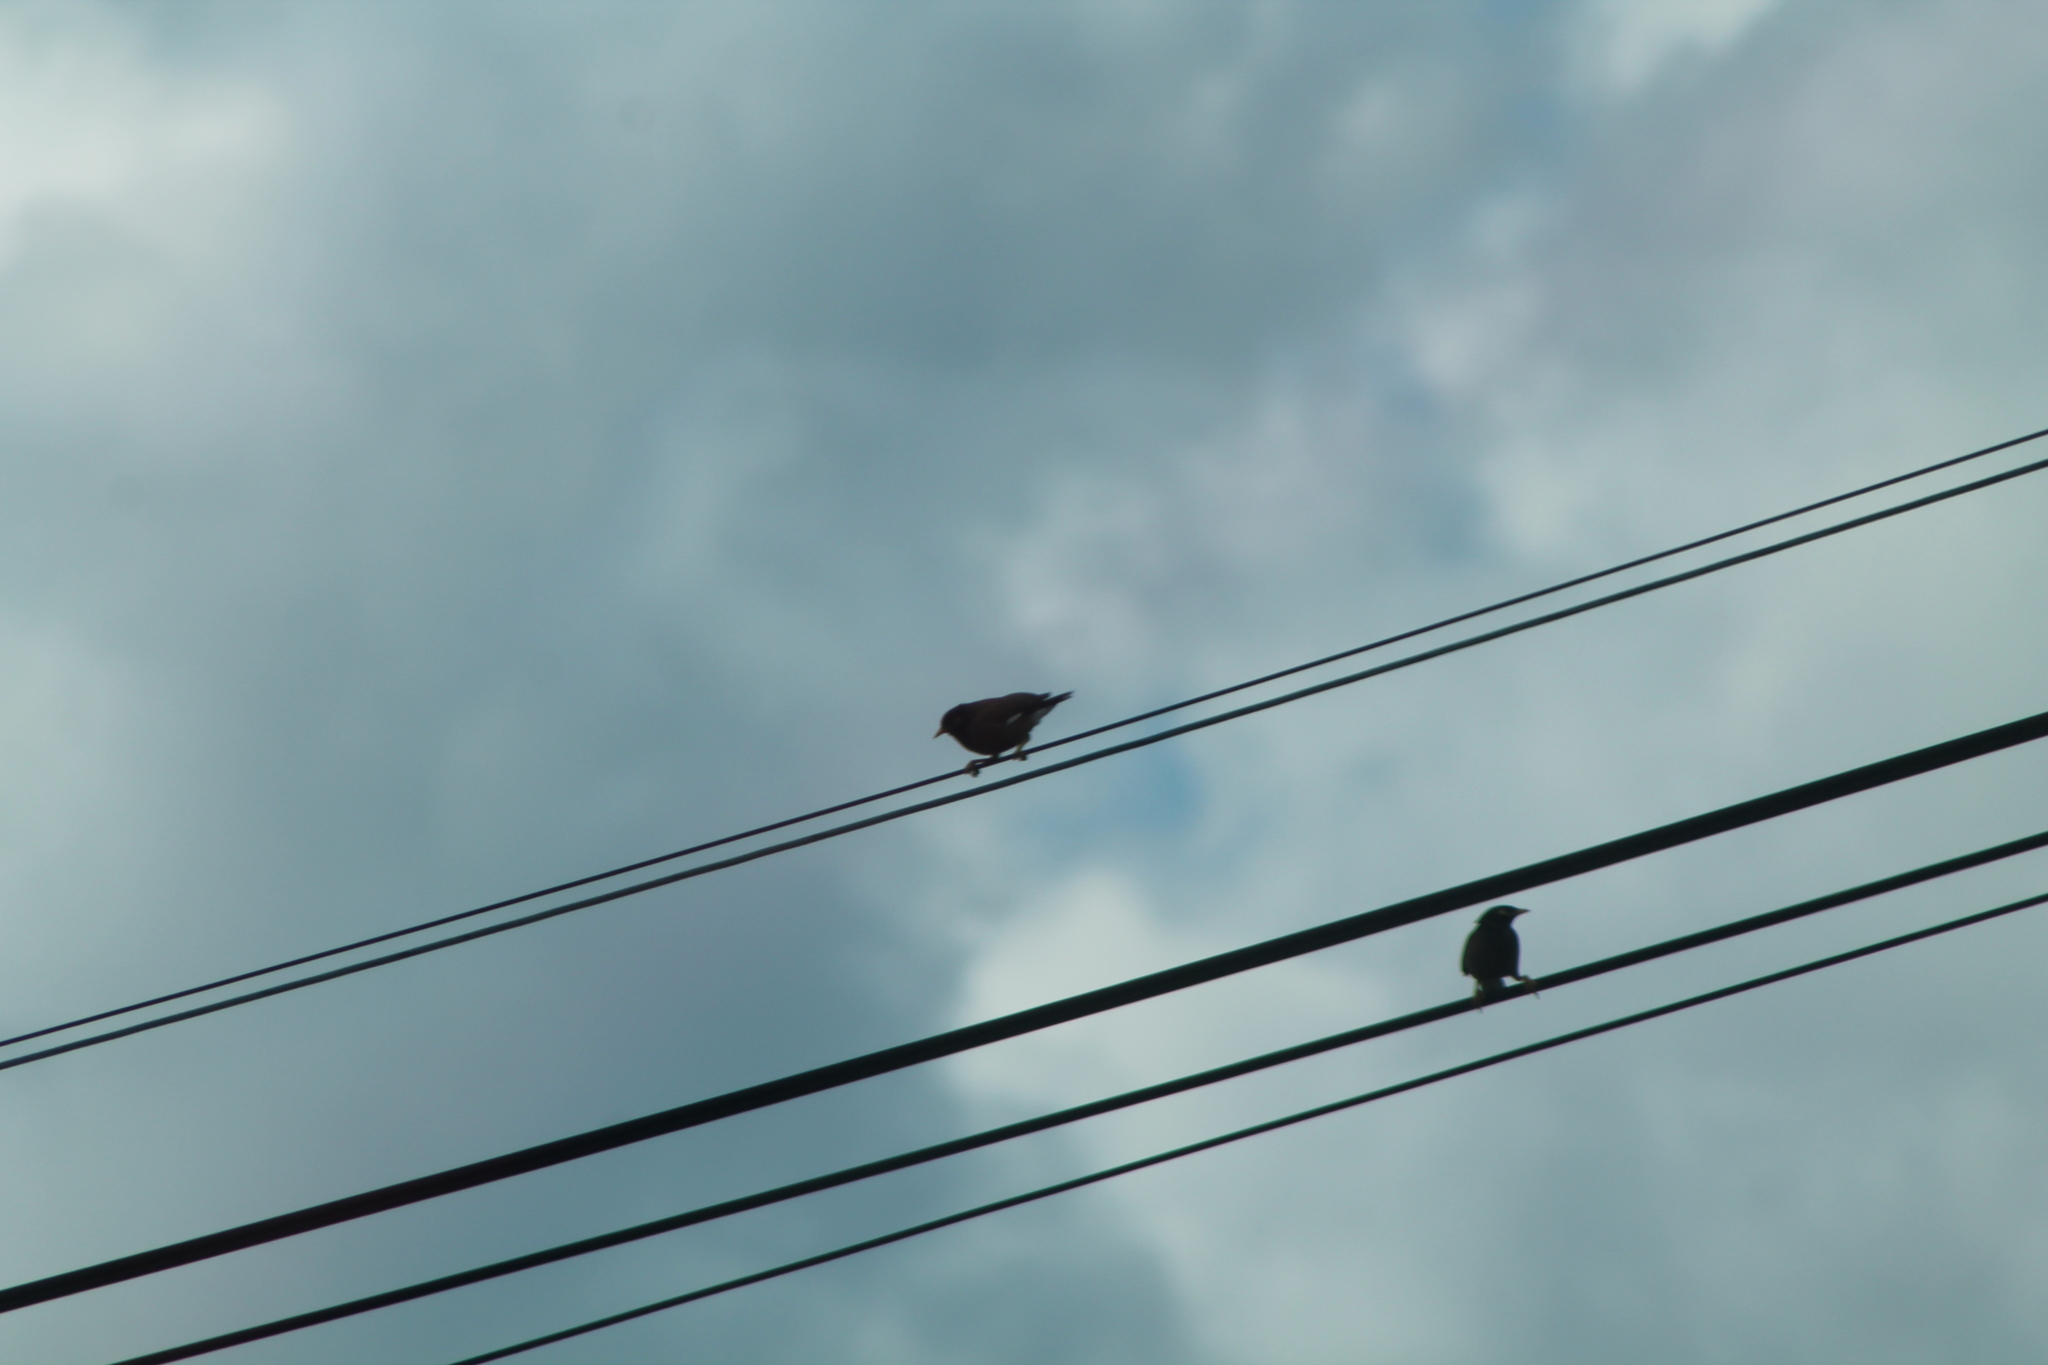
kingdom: Animalia
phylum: Chordata
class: Aves
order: Passeriformes
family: Sturnidae
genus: Acridotheres
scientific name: Acridotheres tristis
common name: Common myna
